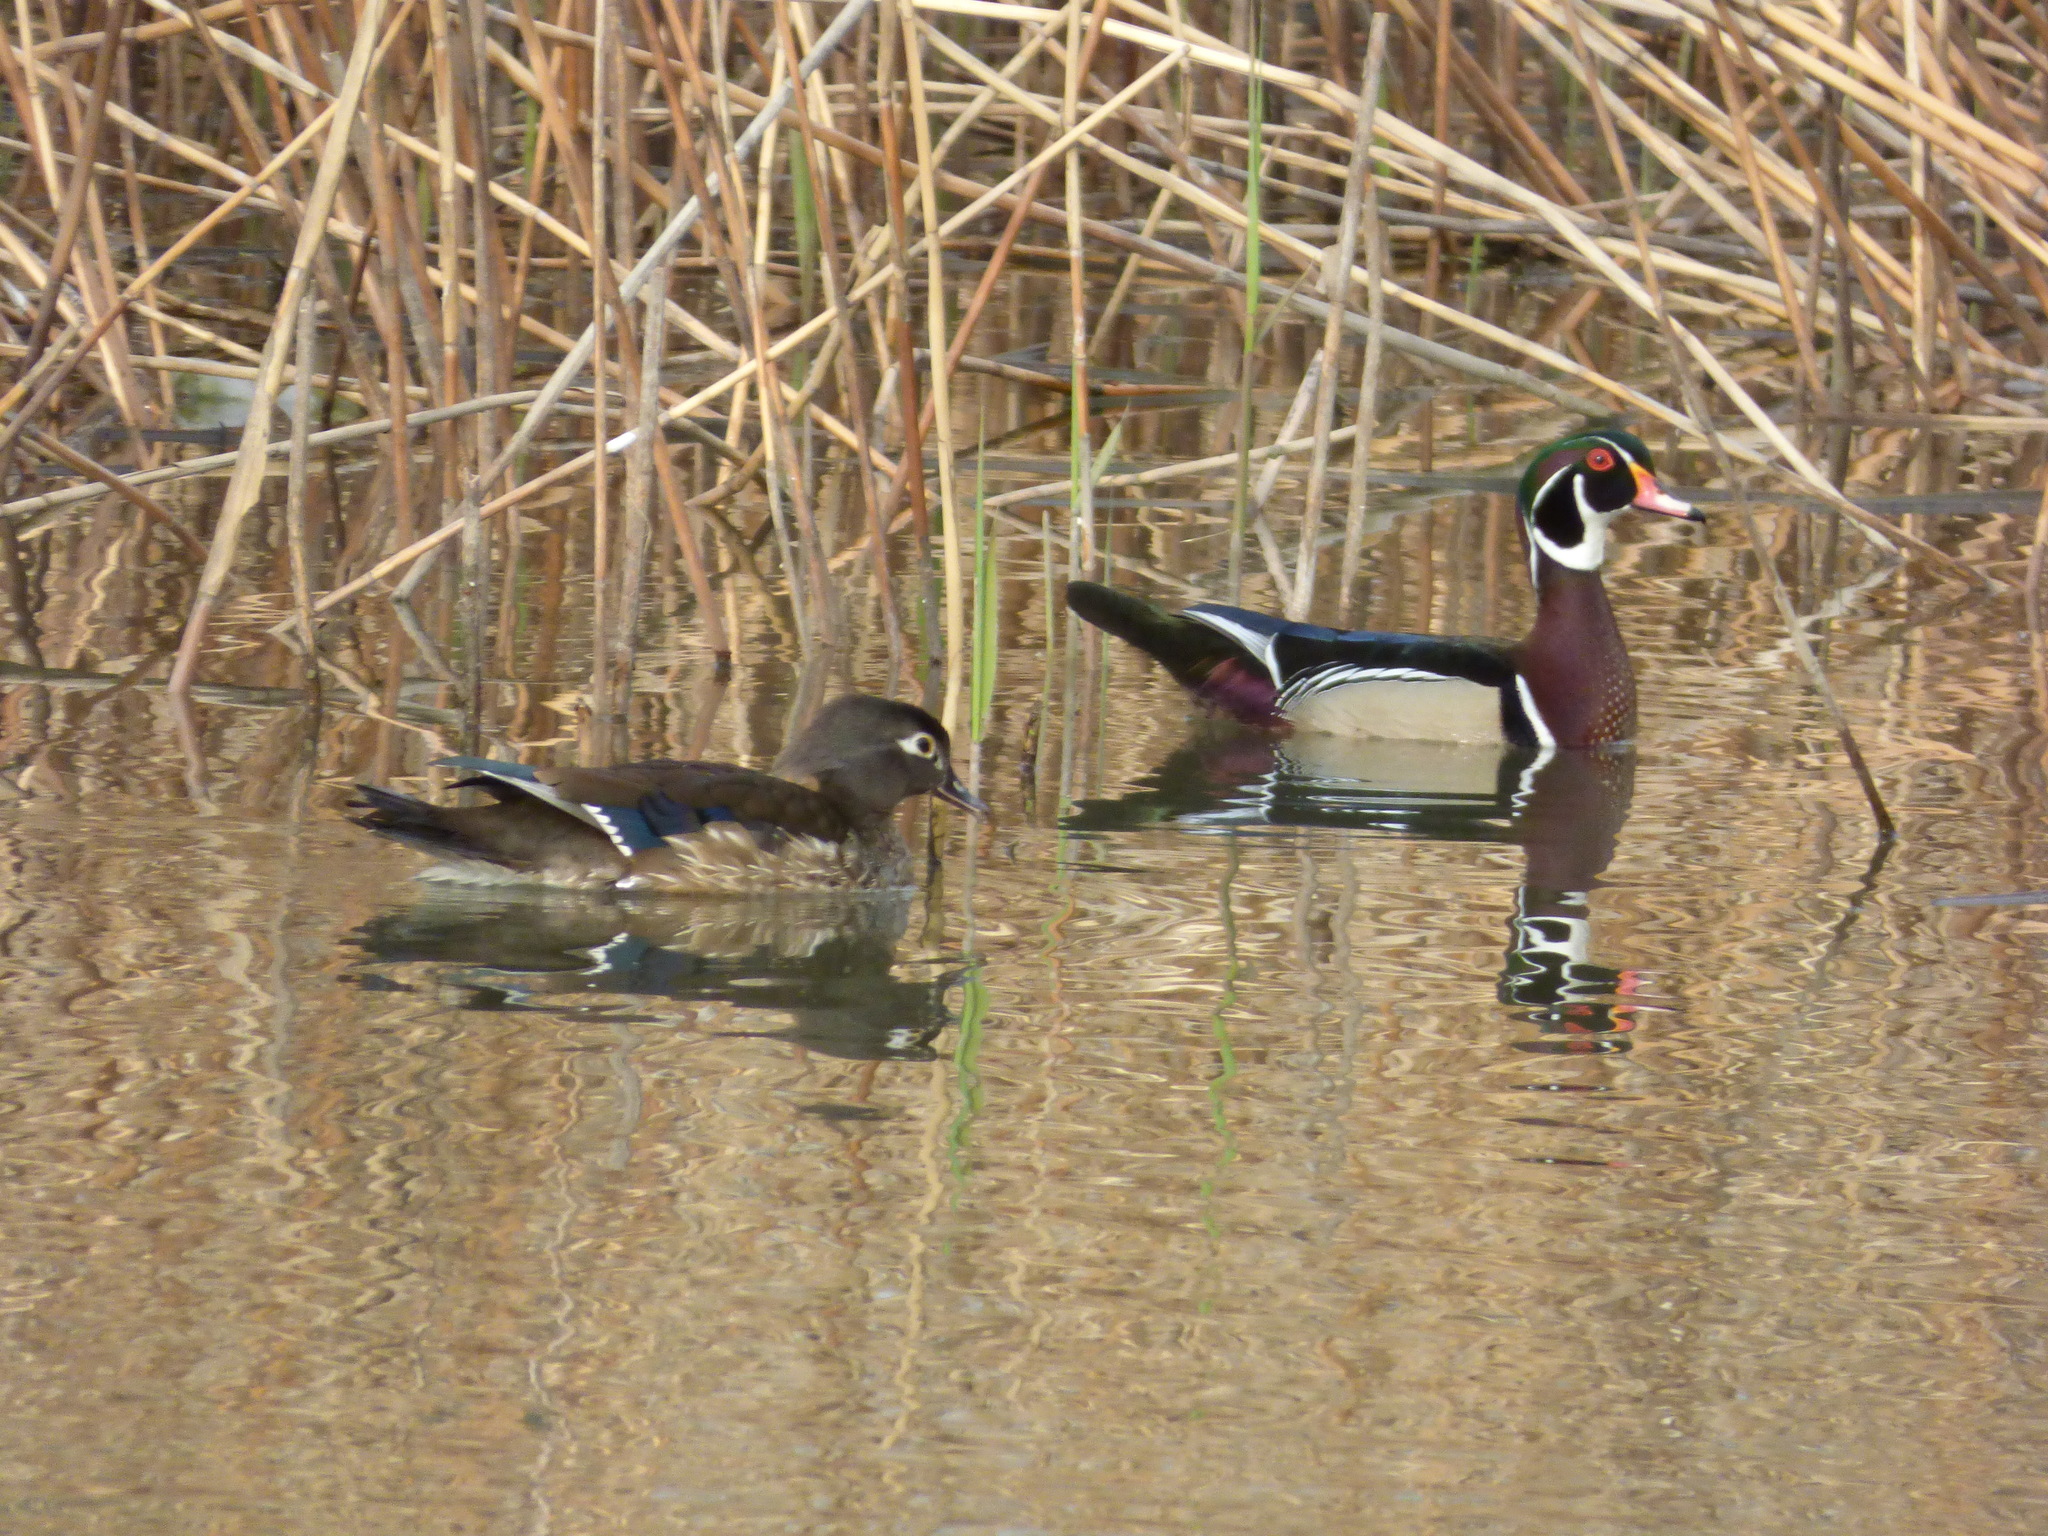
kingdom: Animalia
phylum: Chordata
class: Aves
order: Anseriformes
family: Anatidae
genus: Aix
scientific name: Aix sponsa
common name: Wood duck
